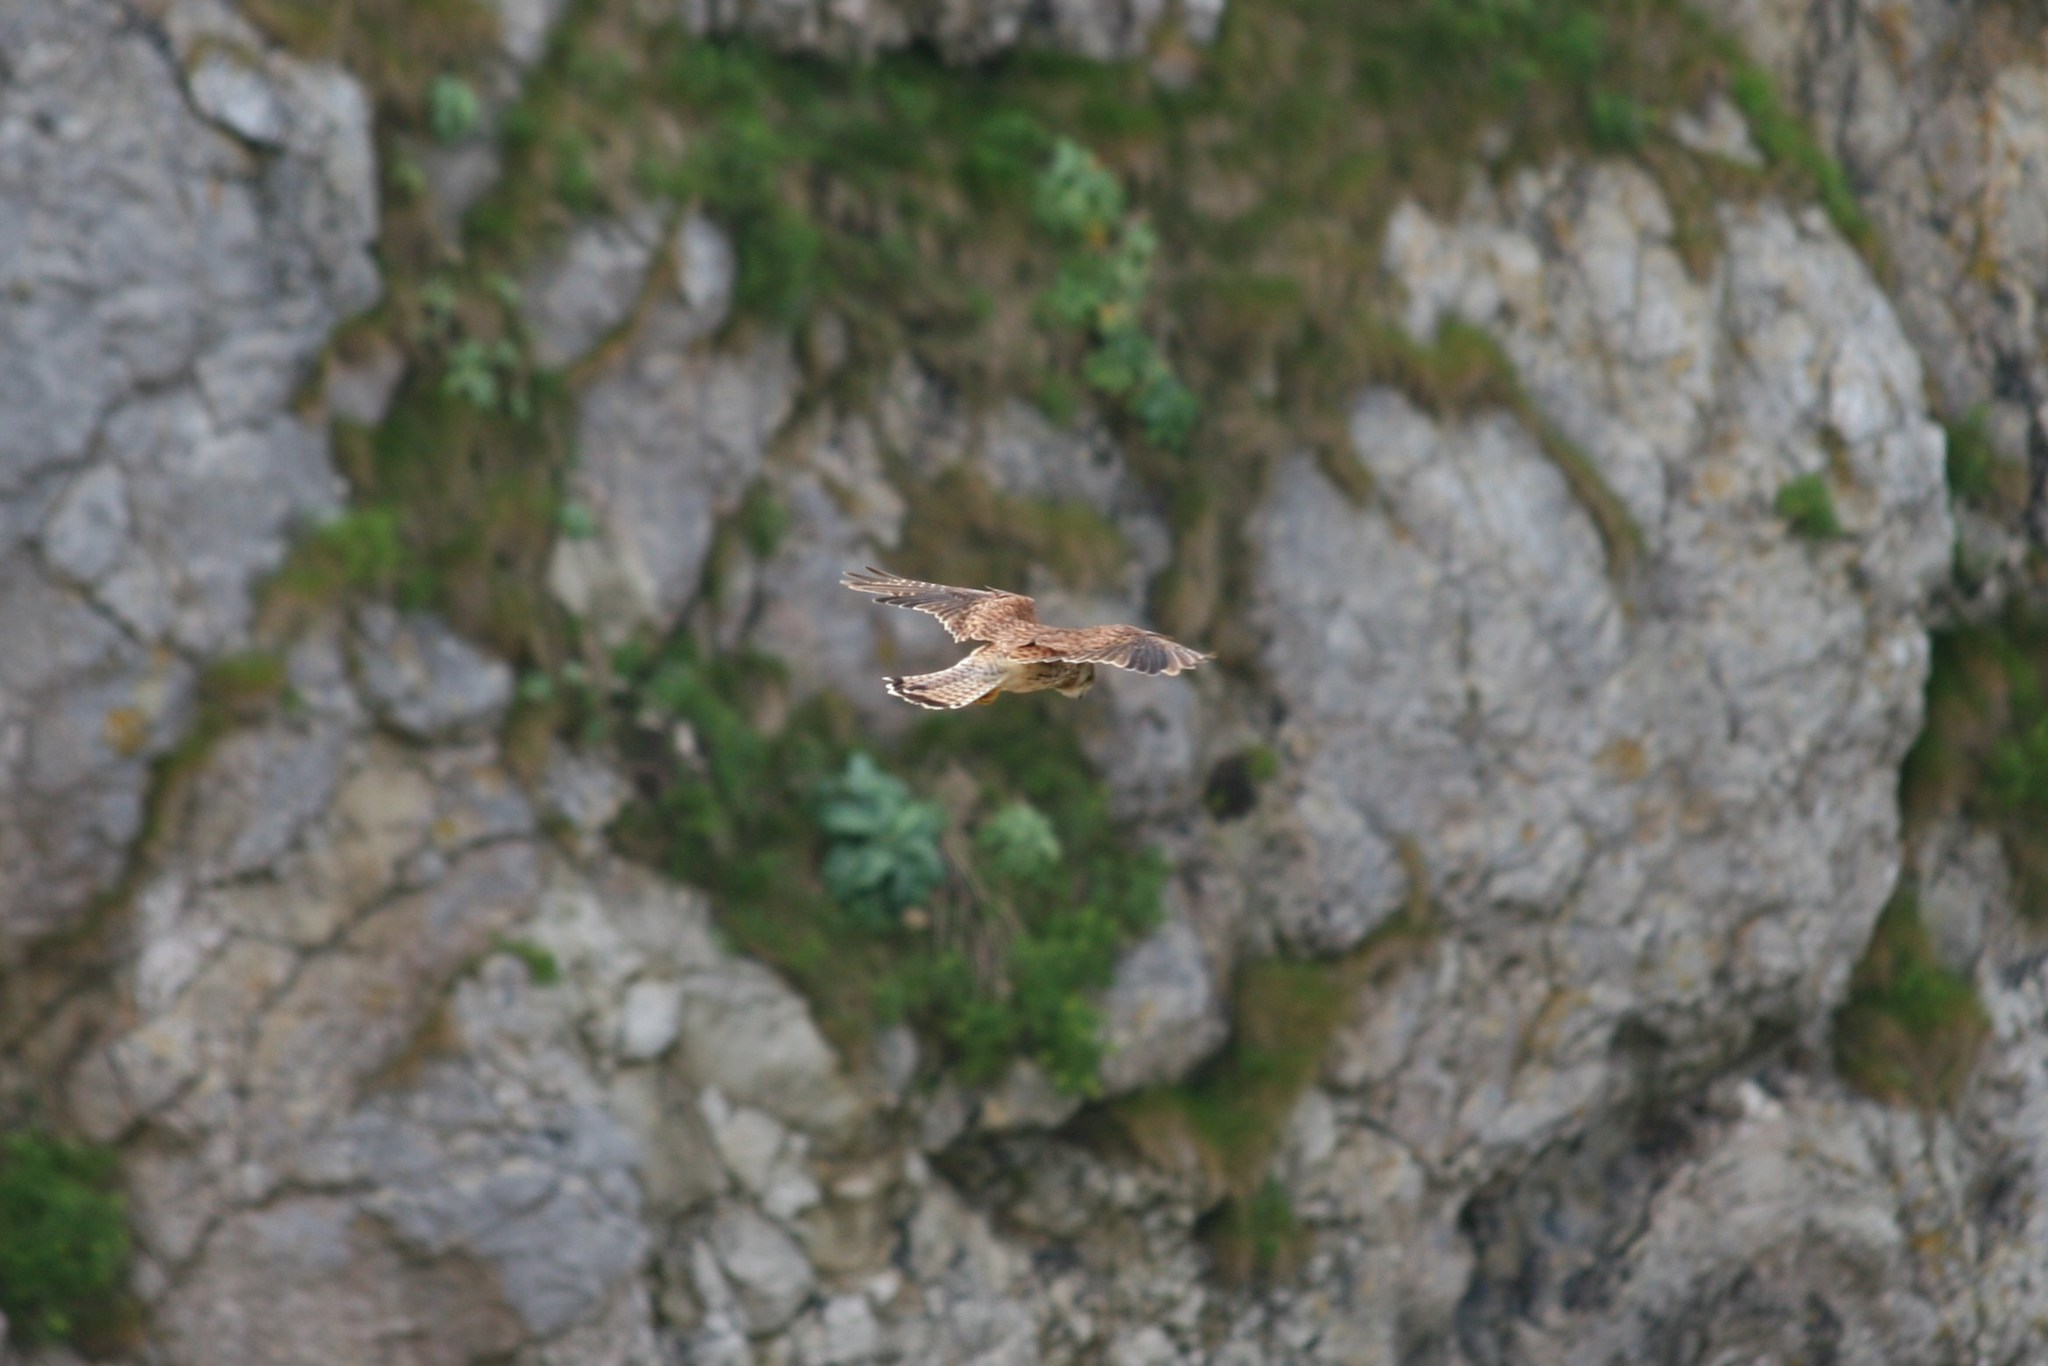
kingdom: Animalia
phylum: Chordata
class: Aves
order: Falconiformes
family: Falconidae
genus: Falco
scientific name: Falco tinnunculus
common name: Common kestrel
